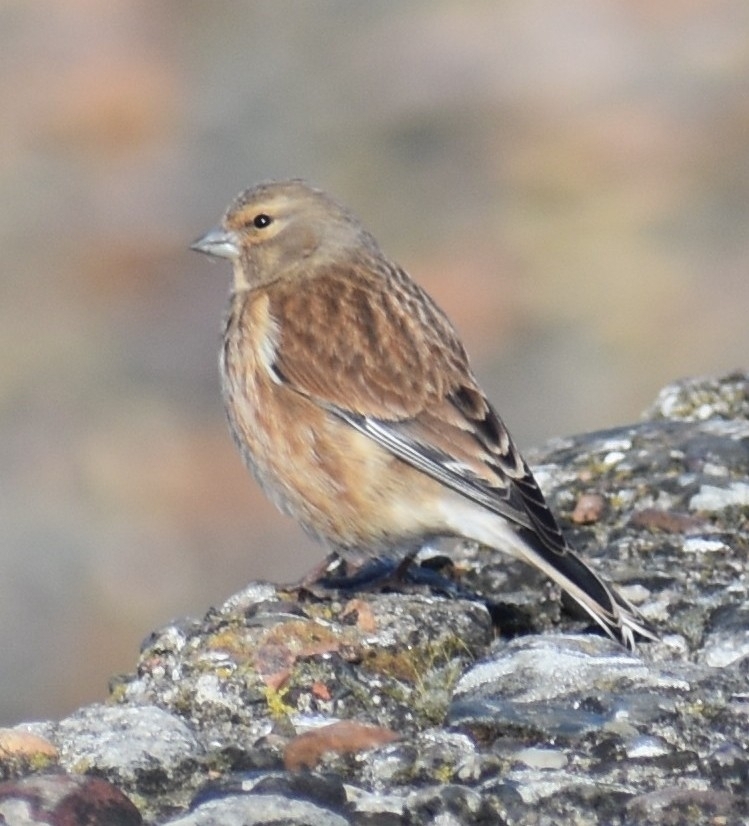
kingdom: Animalia
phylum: Chordata
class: Aves
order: Passeriformes
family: Fringillidae
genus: Linaria
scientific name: Linaria cannabina
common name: Common linnet
